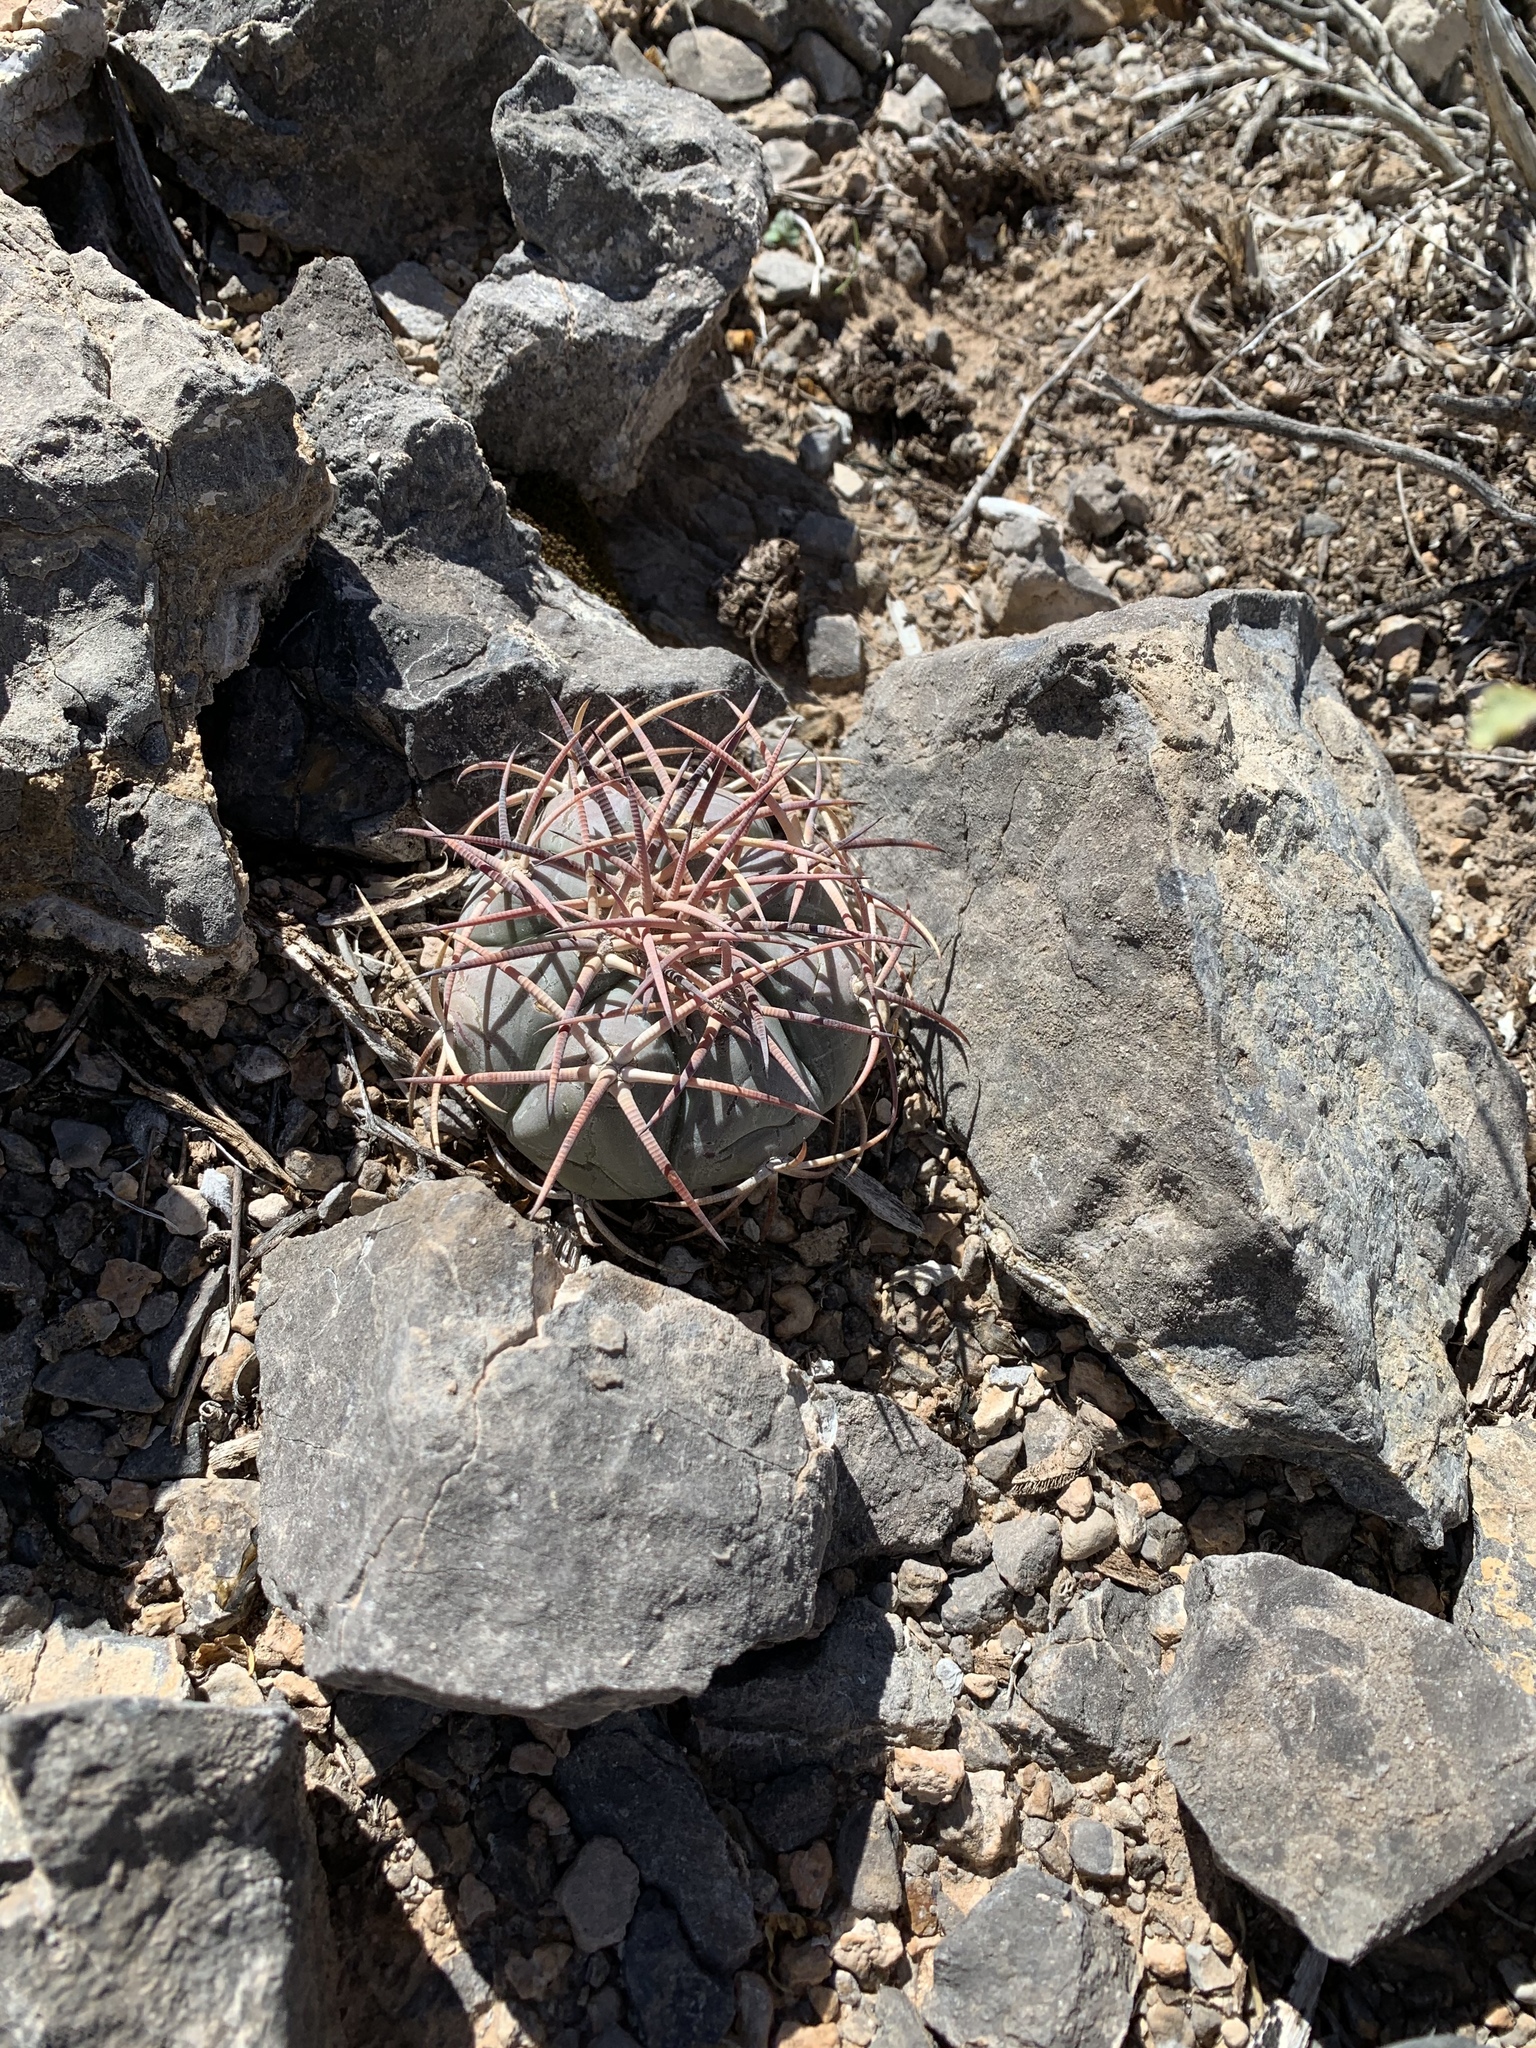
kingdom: Plantae
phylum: Tracheophyta
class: Magnoliopsida
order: Caryophyllales
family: Cactaceae
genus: Echinocactus
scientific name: Echinocactus horizonthalonius
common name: Devilshead
